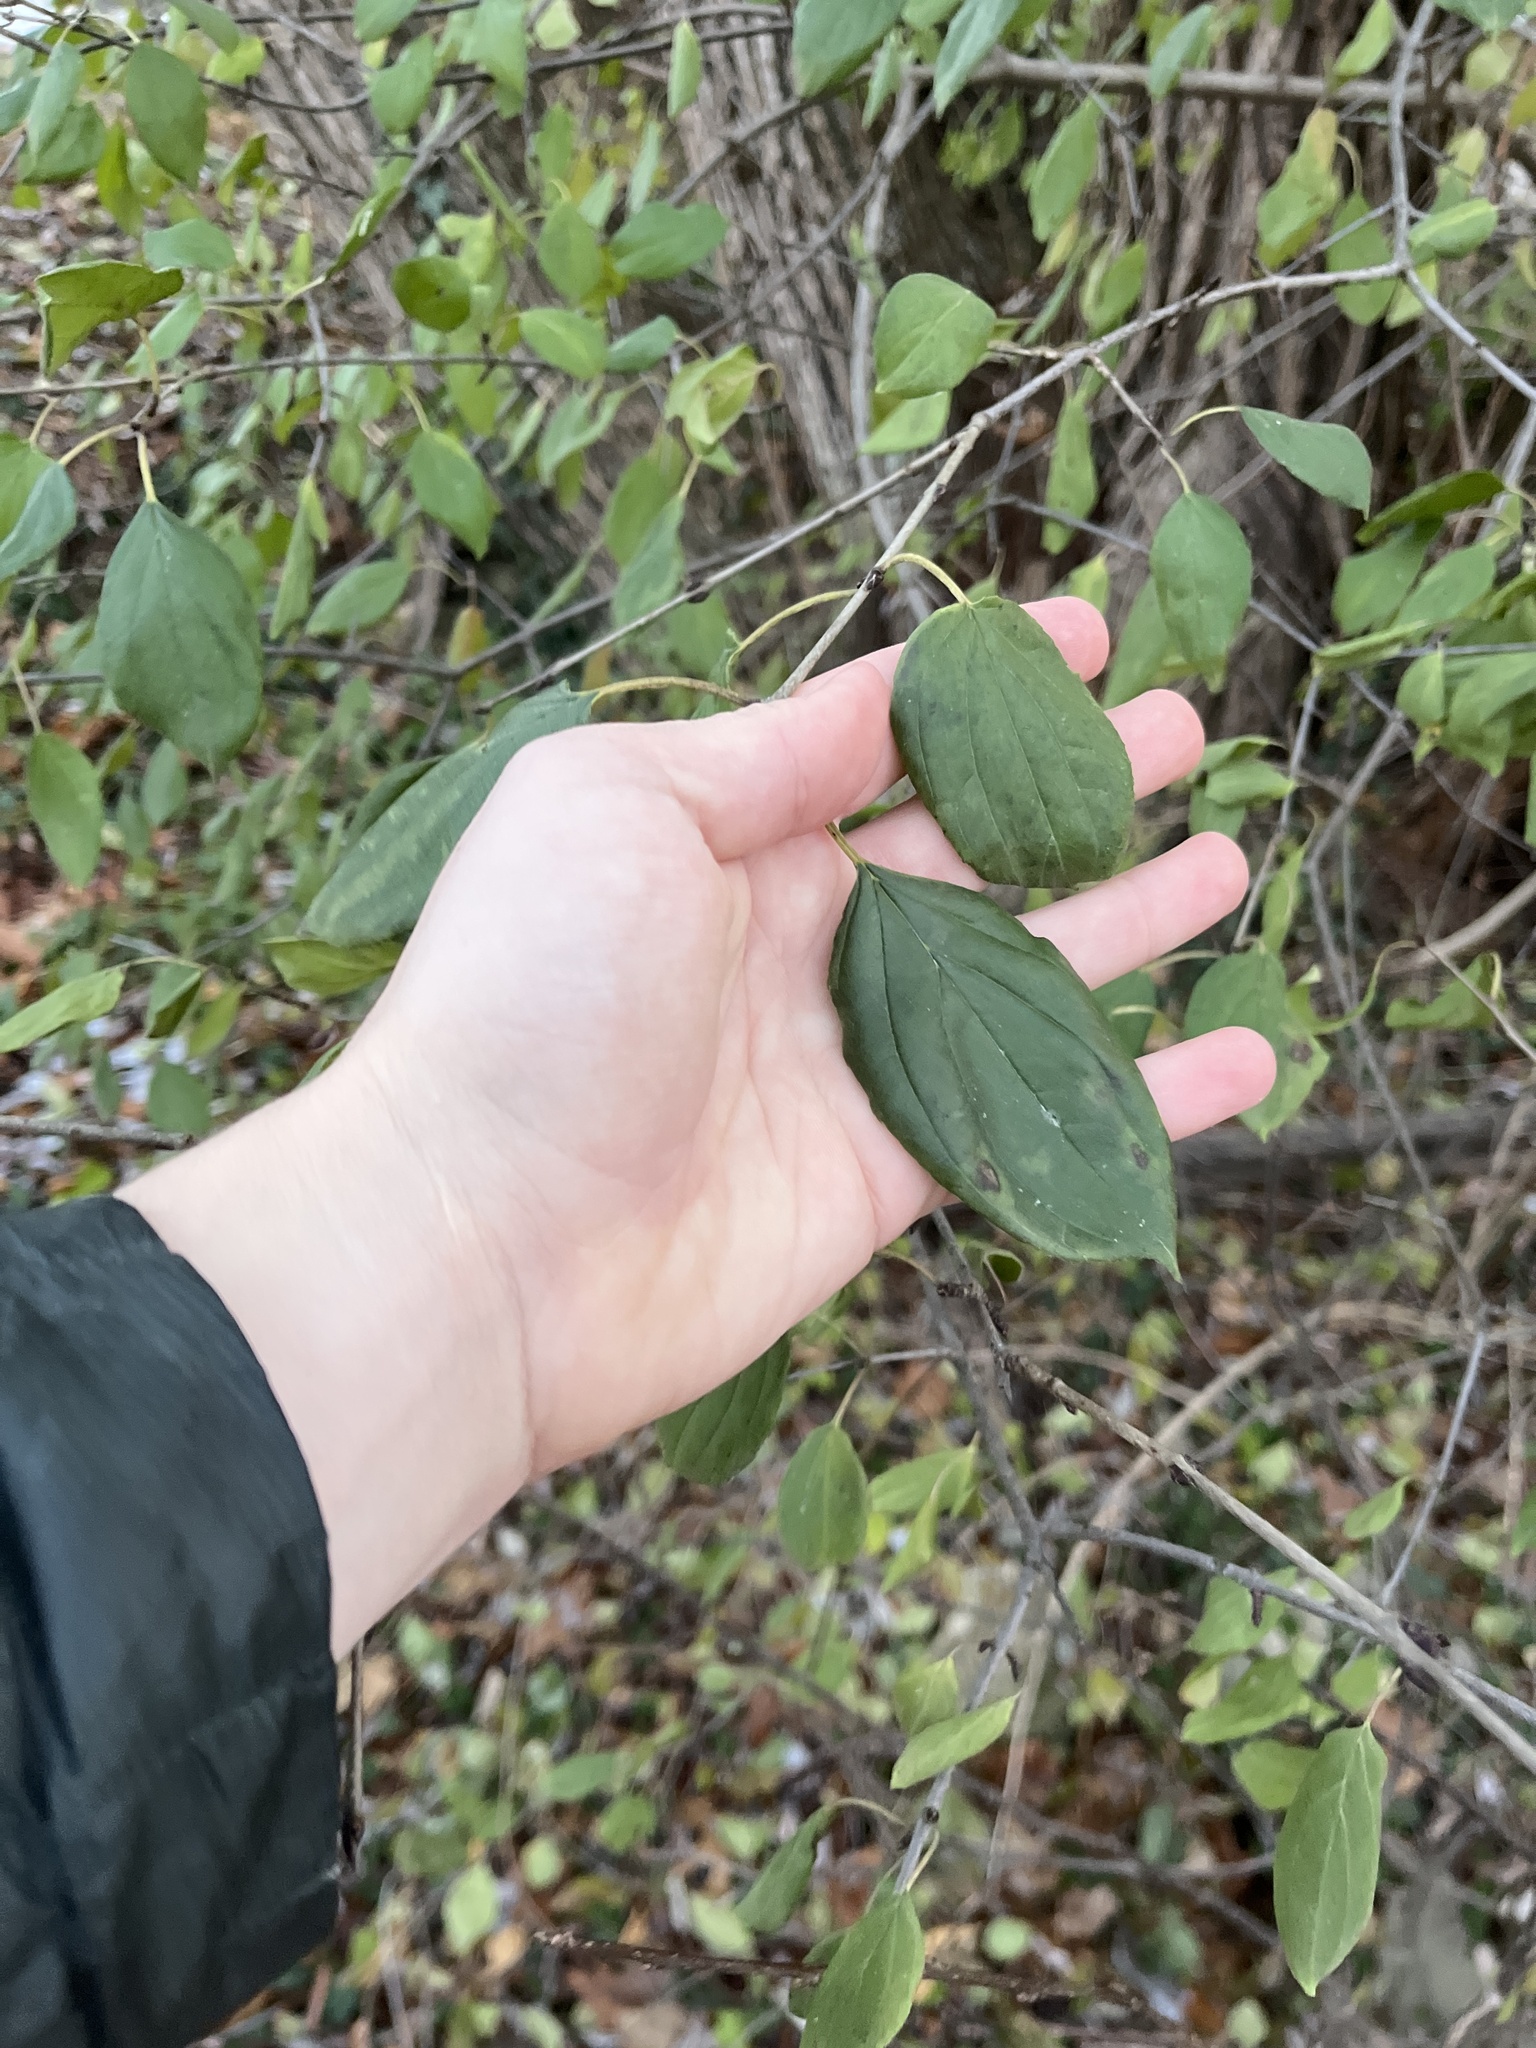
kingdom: Plantae
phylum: Tracheophyta
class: Magnoliopsida
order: Rosales
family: Rhamnaceae
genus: Rhamnus
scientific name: Rhamnus cathartica
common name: Common buckthorn
